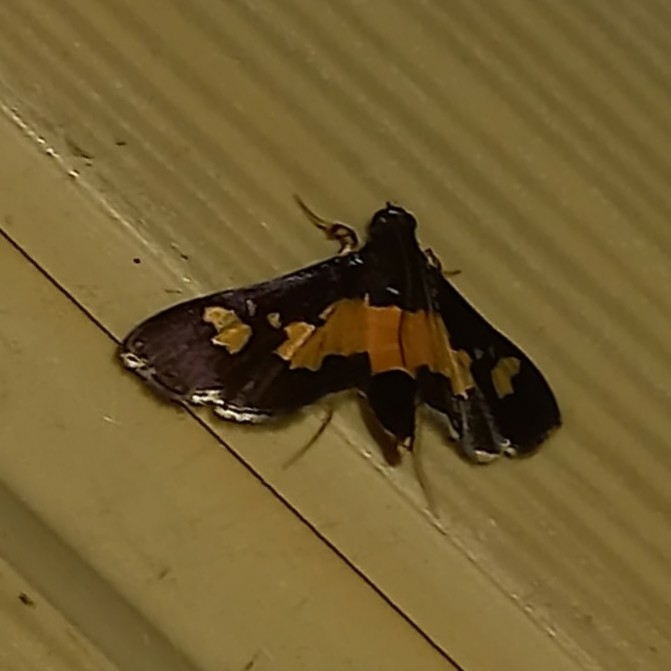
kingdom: Animalia
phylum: Arthropoda
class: Insecta
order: Lepidoptera
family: Crambidae
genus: Salbia
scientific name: Salbia zena
